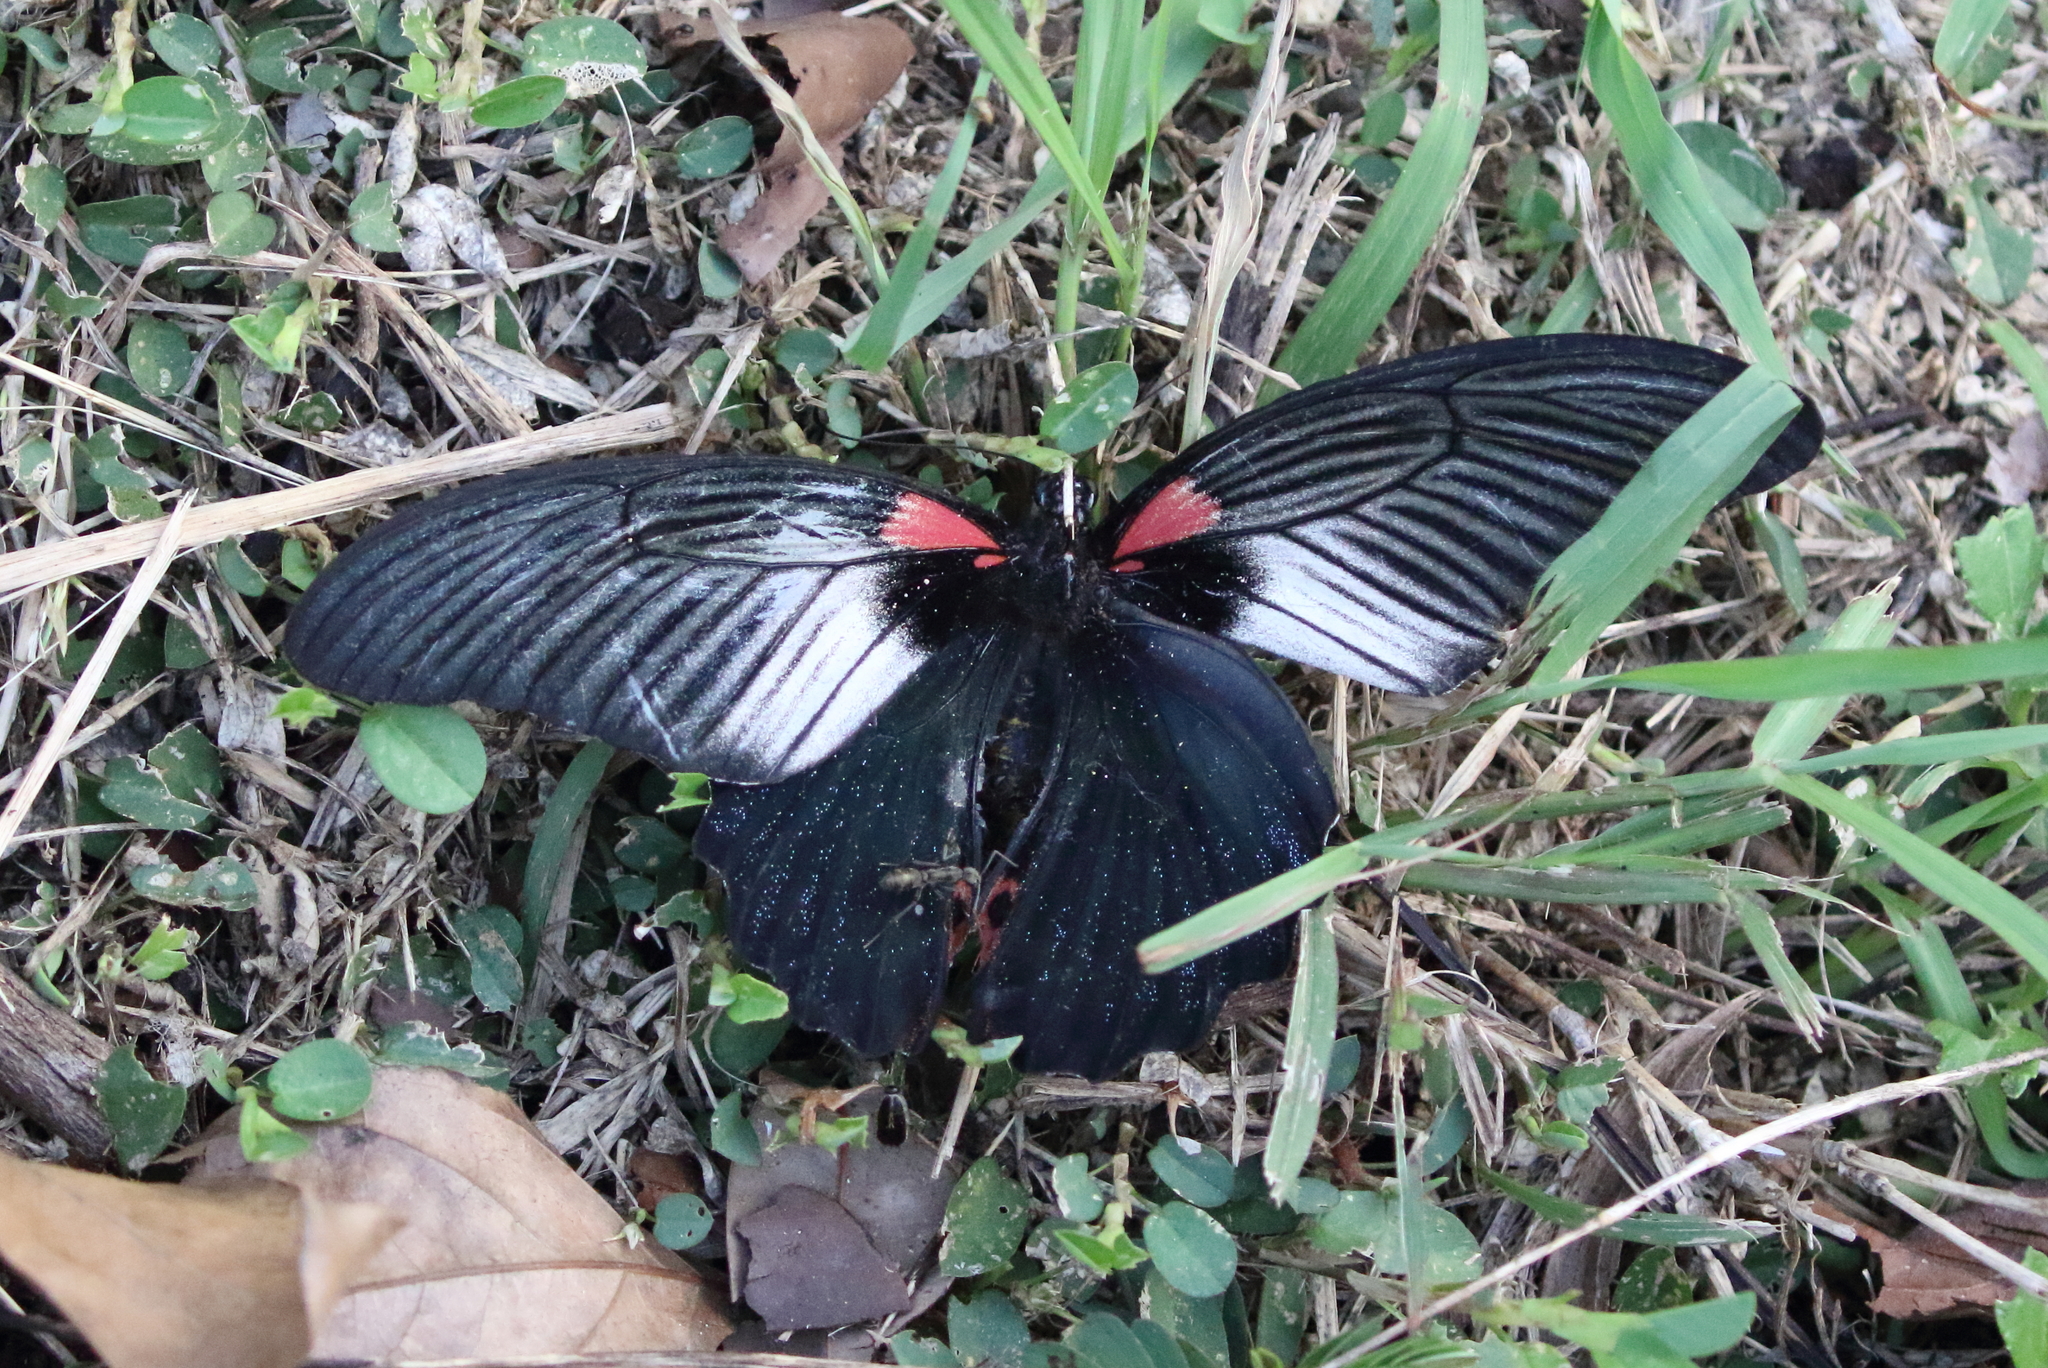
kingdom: Animalia
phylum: Arthropoda
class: Insecta
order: Lepidoptera
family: Papilionidae
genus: Papilio
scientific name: Papilio memnon
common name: Great mormon
